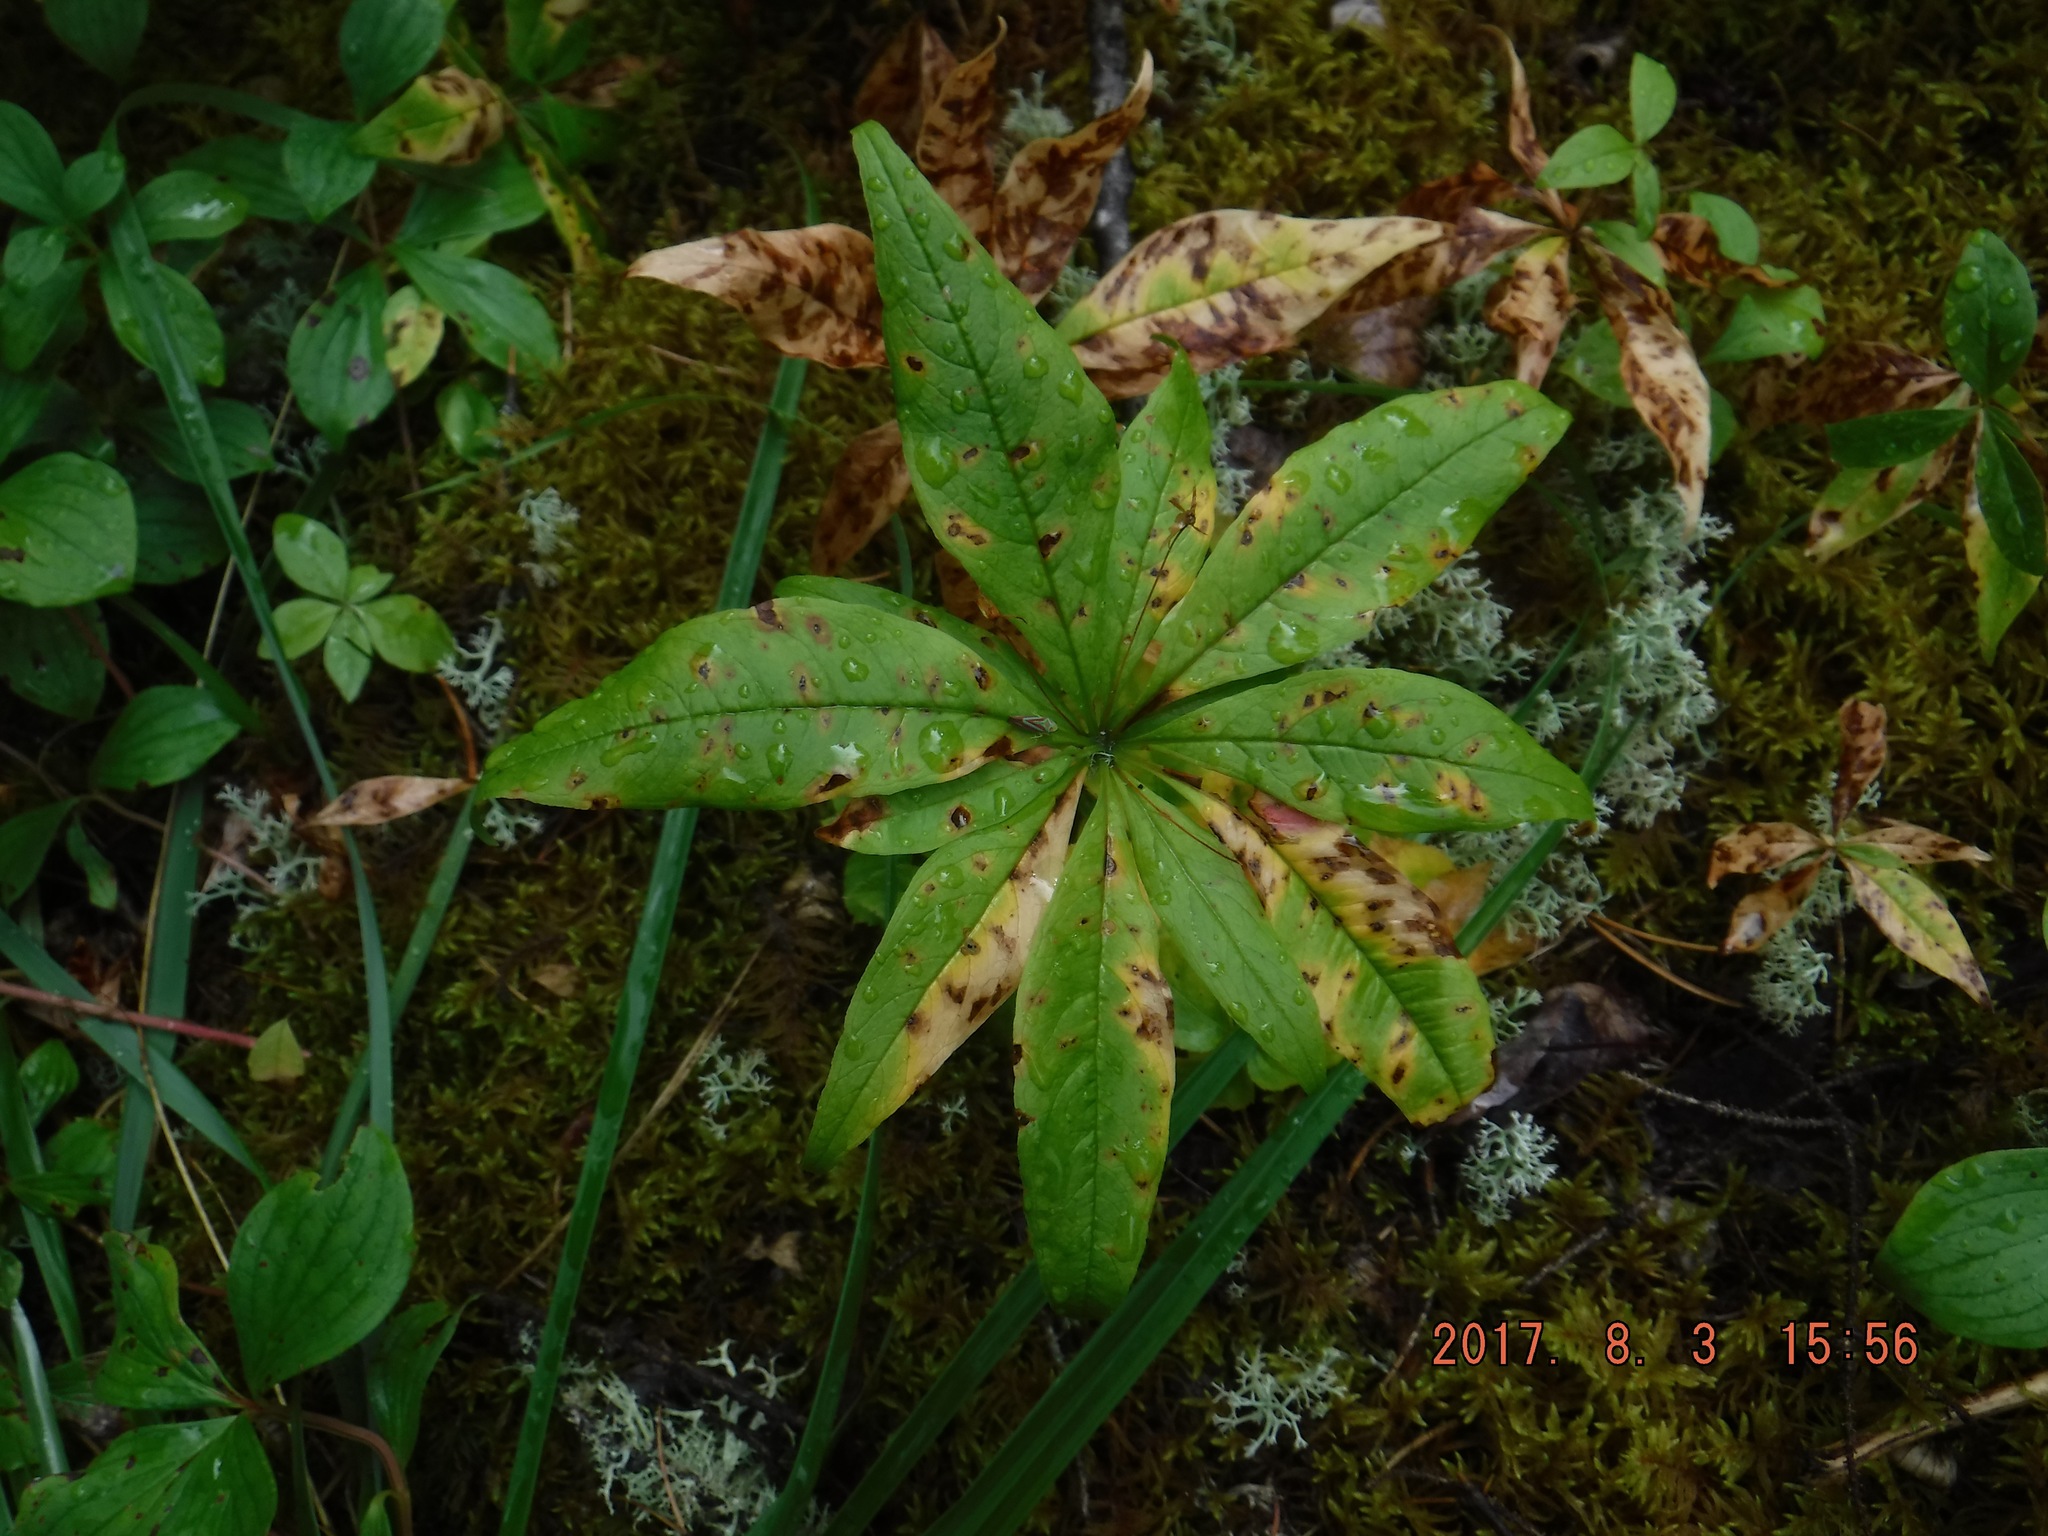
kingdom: Plantae
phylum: Tracheophyta
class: Magnoliopsida
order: Ericales
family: Primulaceae
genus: Lysimachia
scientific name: Lysimachia borealis
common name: American starflower
